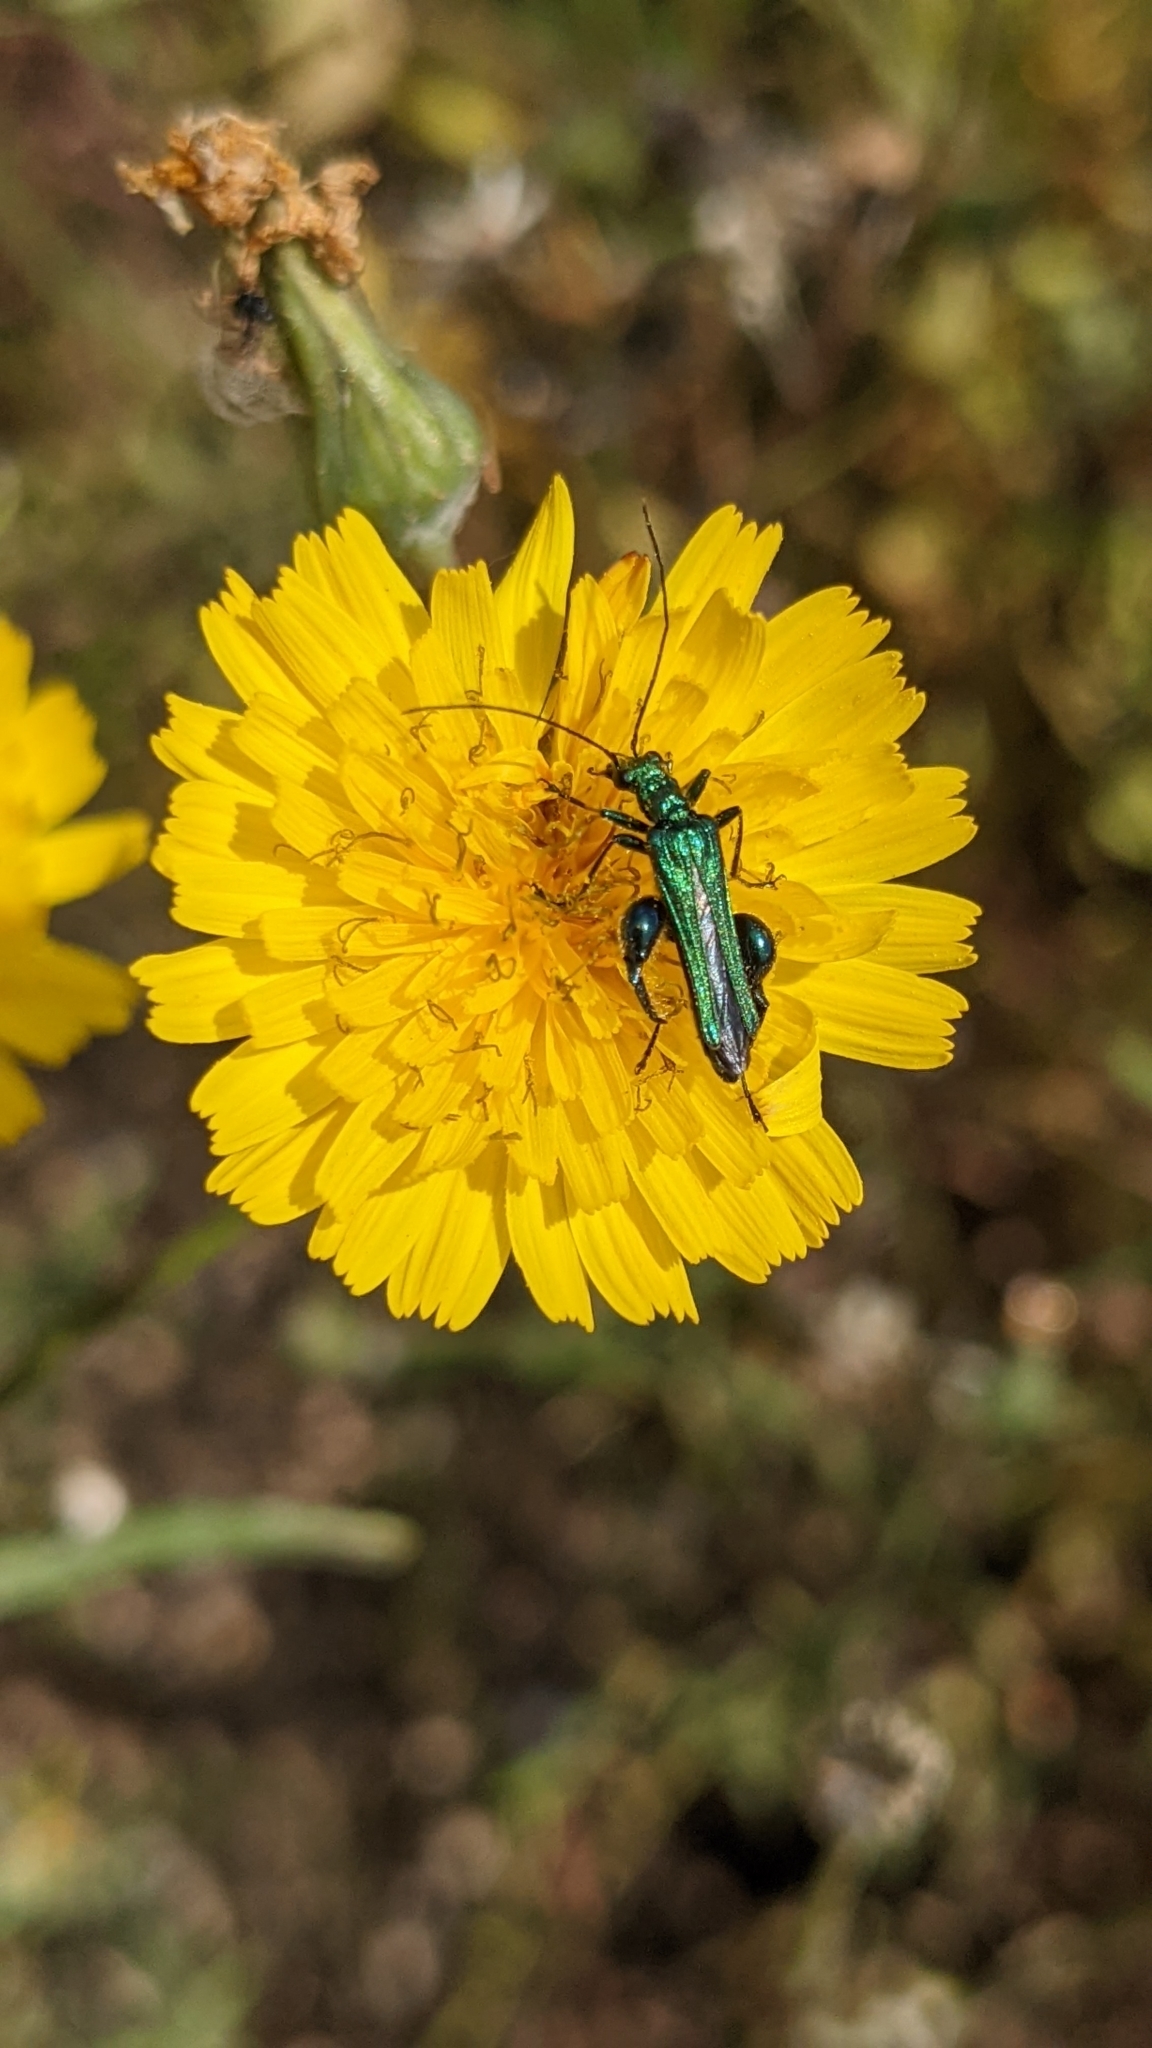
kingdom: Animalia
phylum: Arthropoda
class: Insecta
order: Coleoptera
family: Oedemeridae
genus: Oedemera
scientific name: Oedemera nobilis
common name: Swollen-thighed beetle
